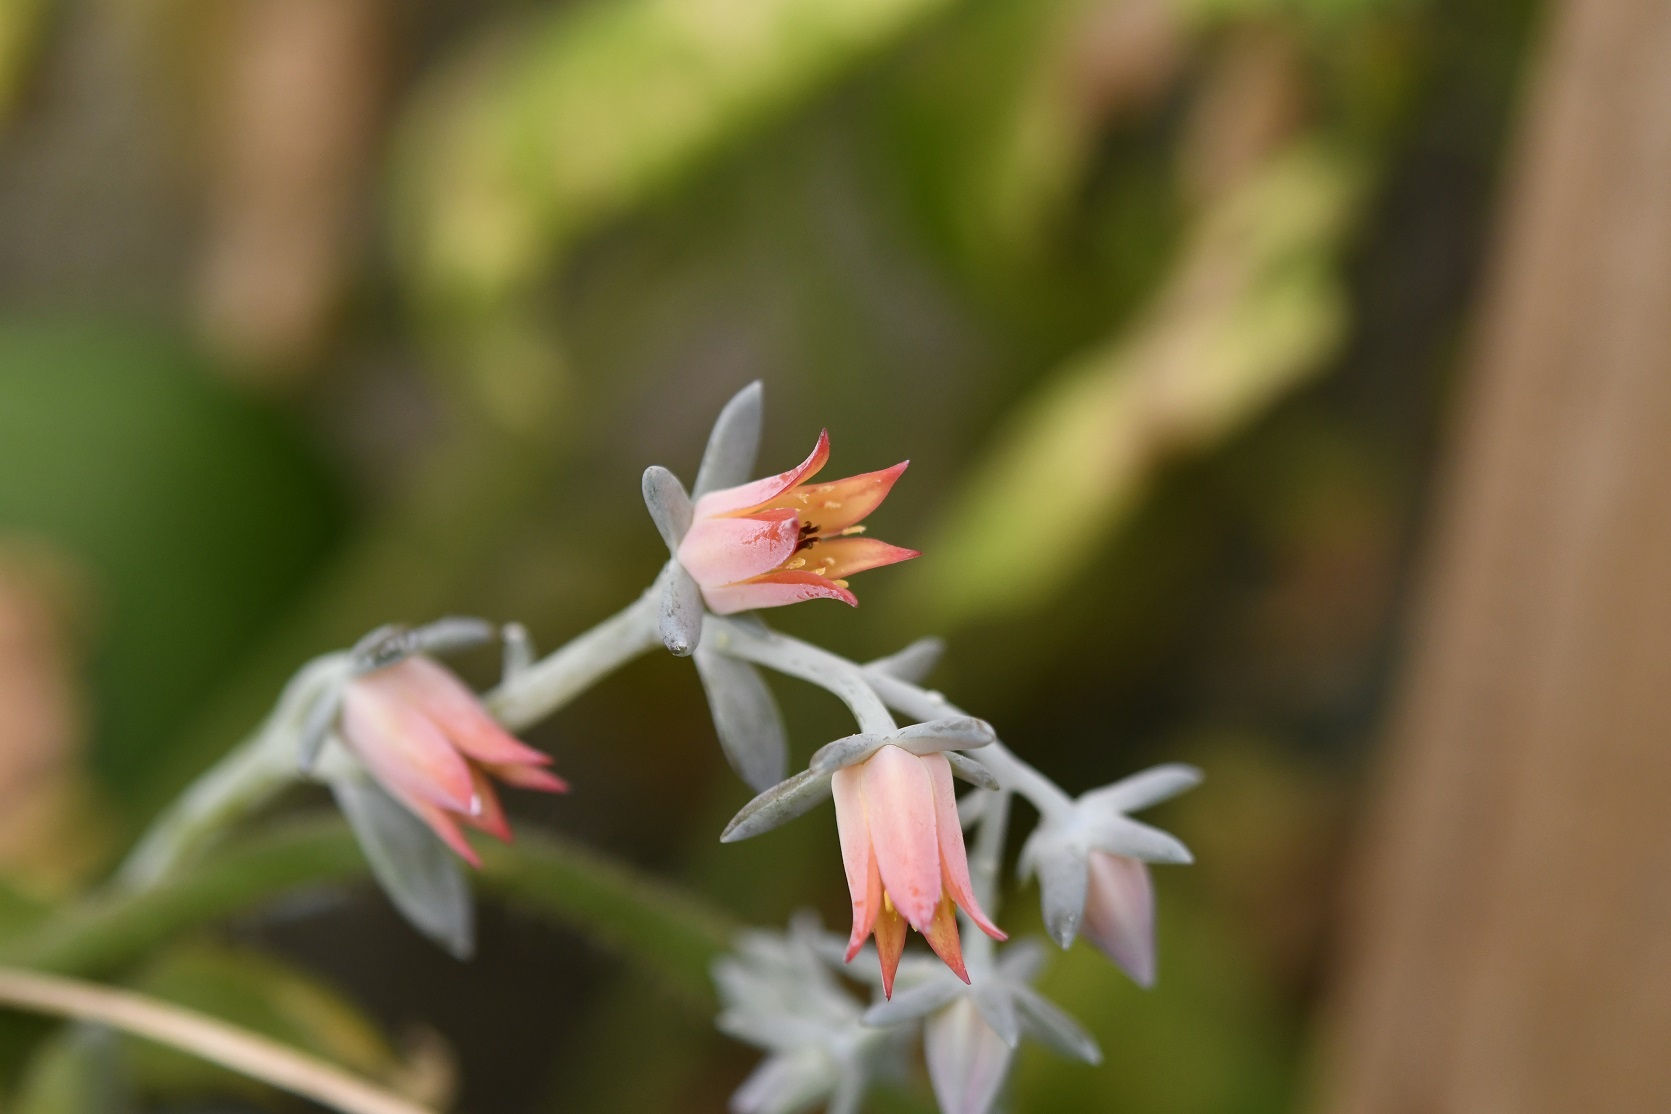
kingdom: Plantae
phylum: Tracheophyta
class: Magnoliopsida
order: Saxifragales
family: Crassulaceae
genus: Echeveria
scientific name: Echeveria prunina
